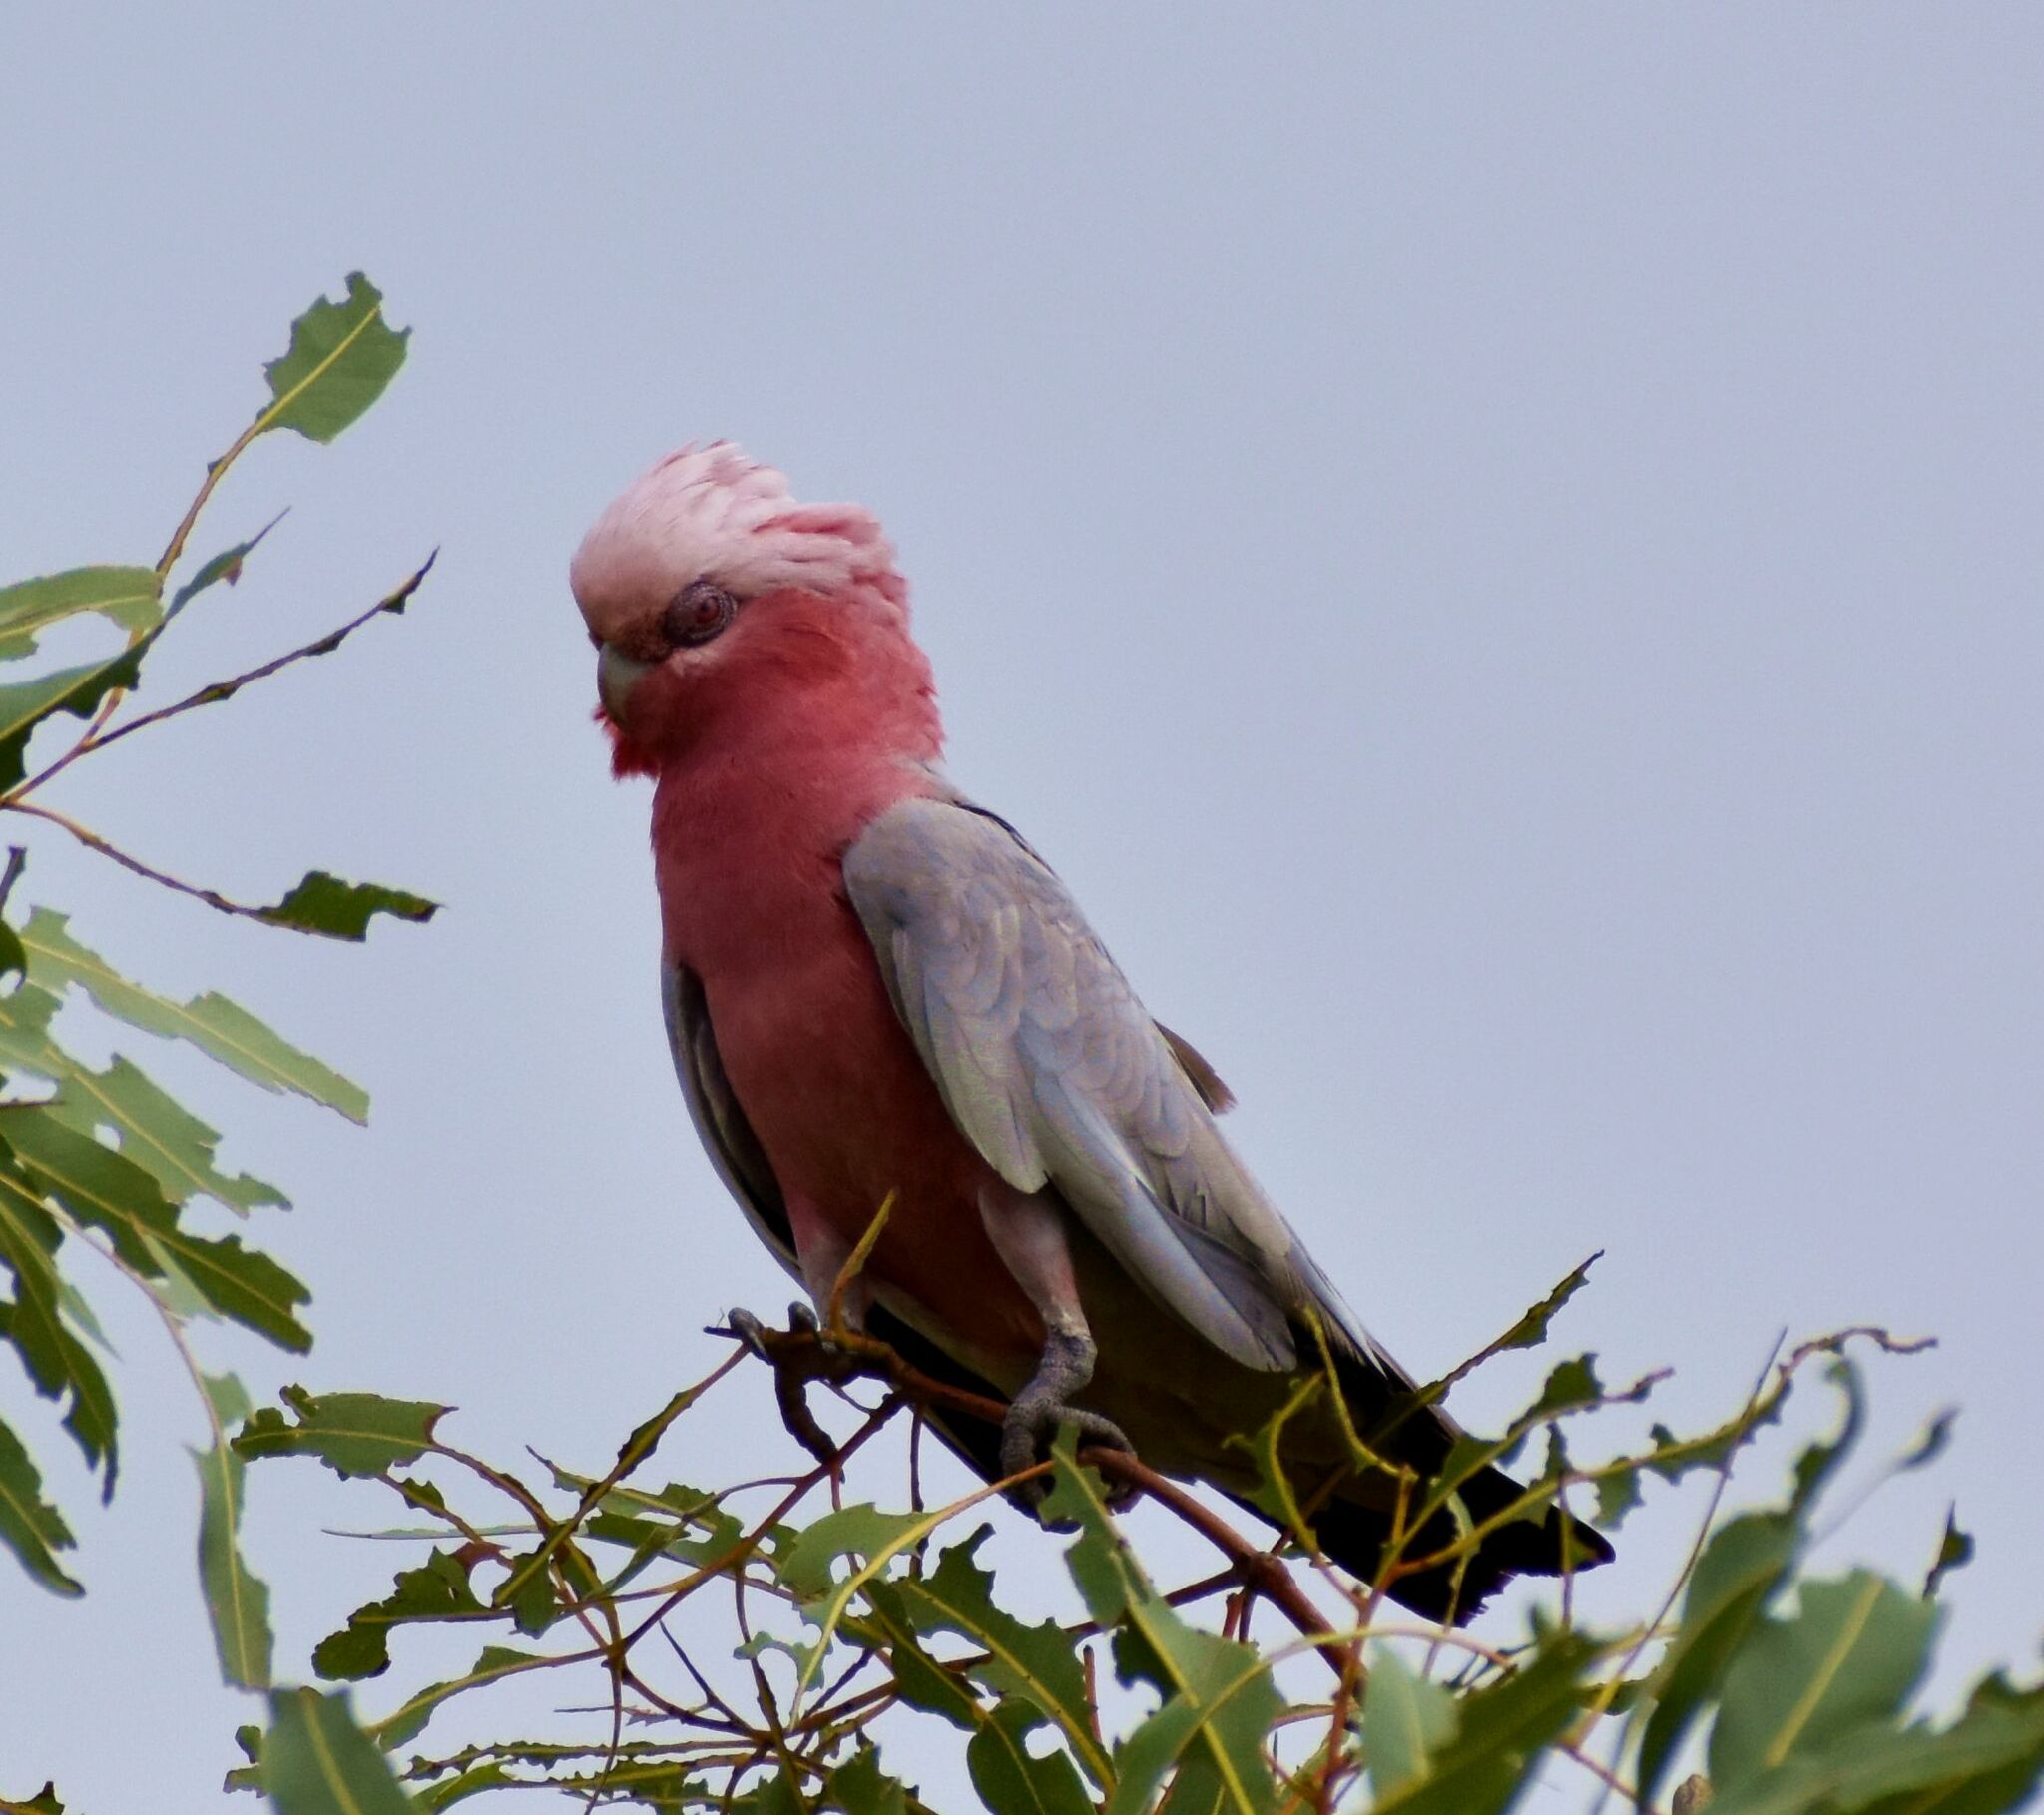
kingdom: Animalia
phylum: Chordata
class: Aves
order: Psittaciformes
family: Psittacidae
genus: Eolophus
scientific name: Eolophus roseicapilla
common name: Galah
